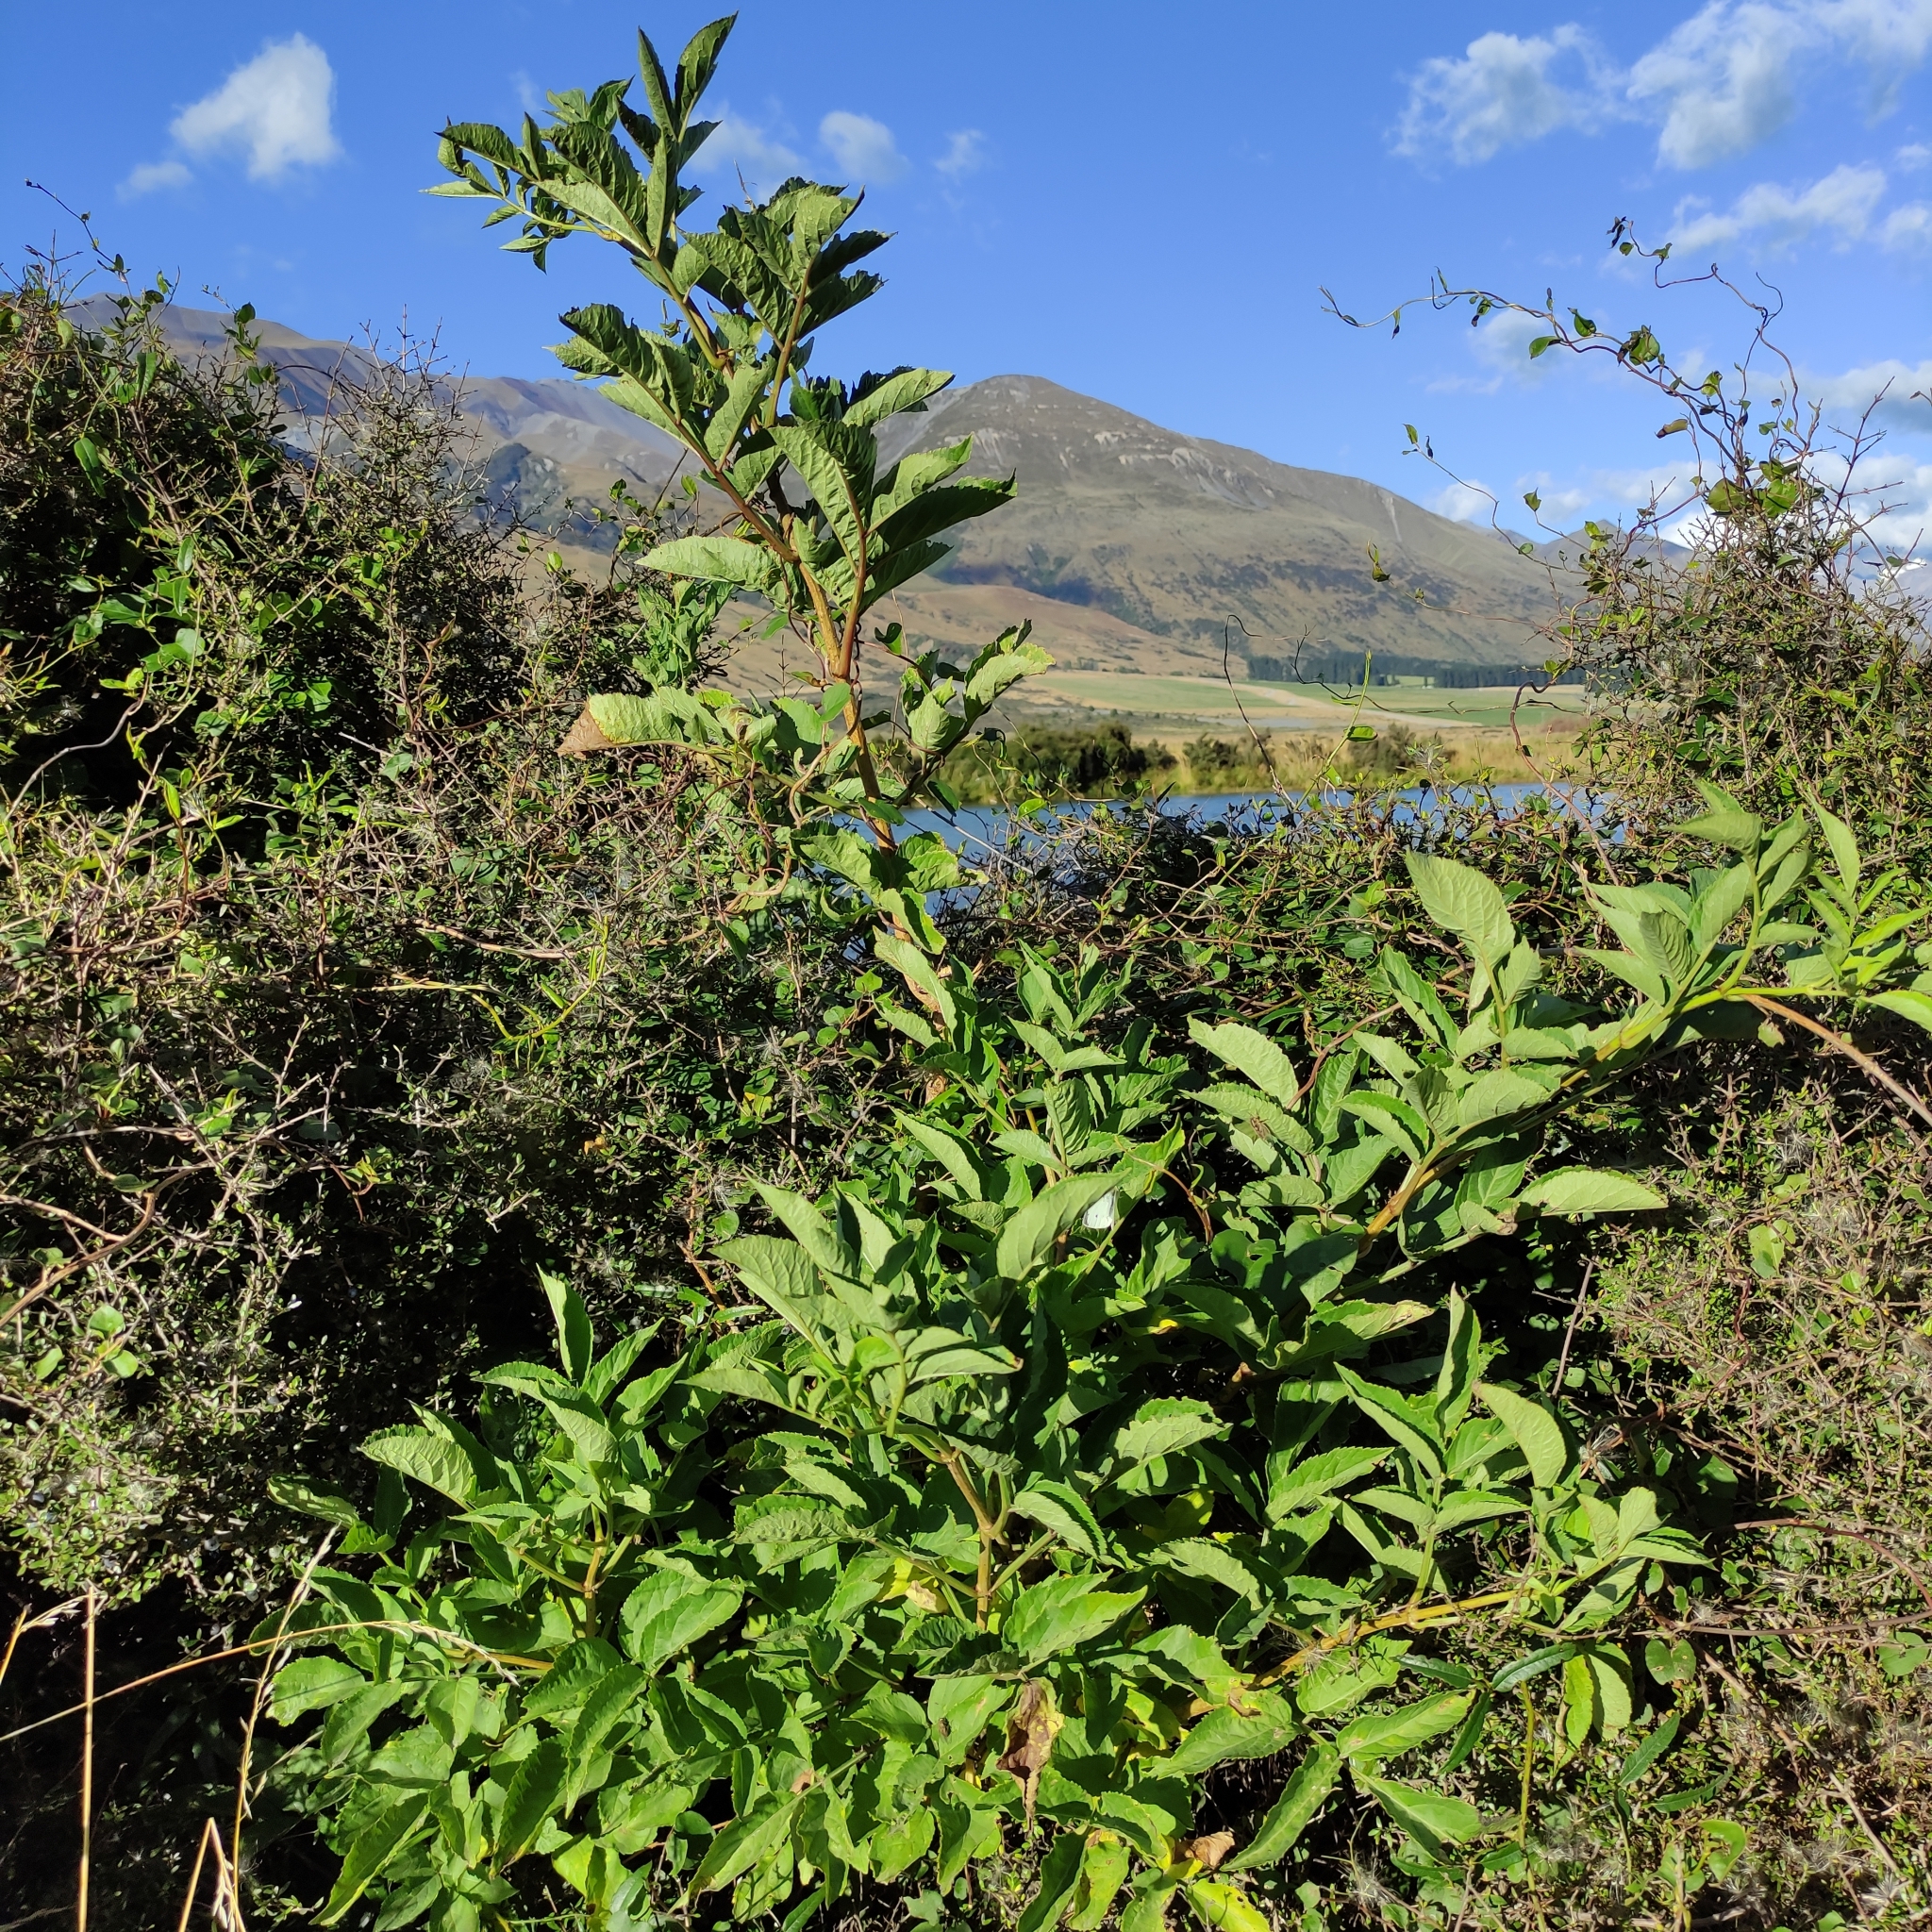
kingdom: Plantae
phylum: Tracheophyta
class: Magnoliopsida
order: Dipsacales
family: Viburnaceae
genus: Sambucus
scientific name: Sambucus nigra
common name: Elder
